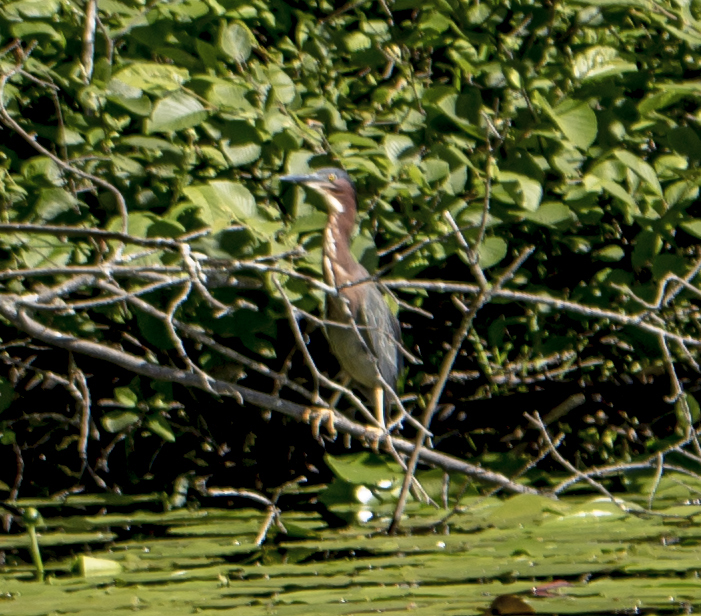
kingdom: Animalia
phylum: Chordata
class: Aves
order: Pelecaniformes
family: Ardeidae
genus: Butorides
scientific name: Butorides virescens
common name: Green heron
